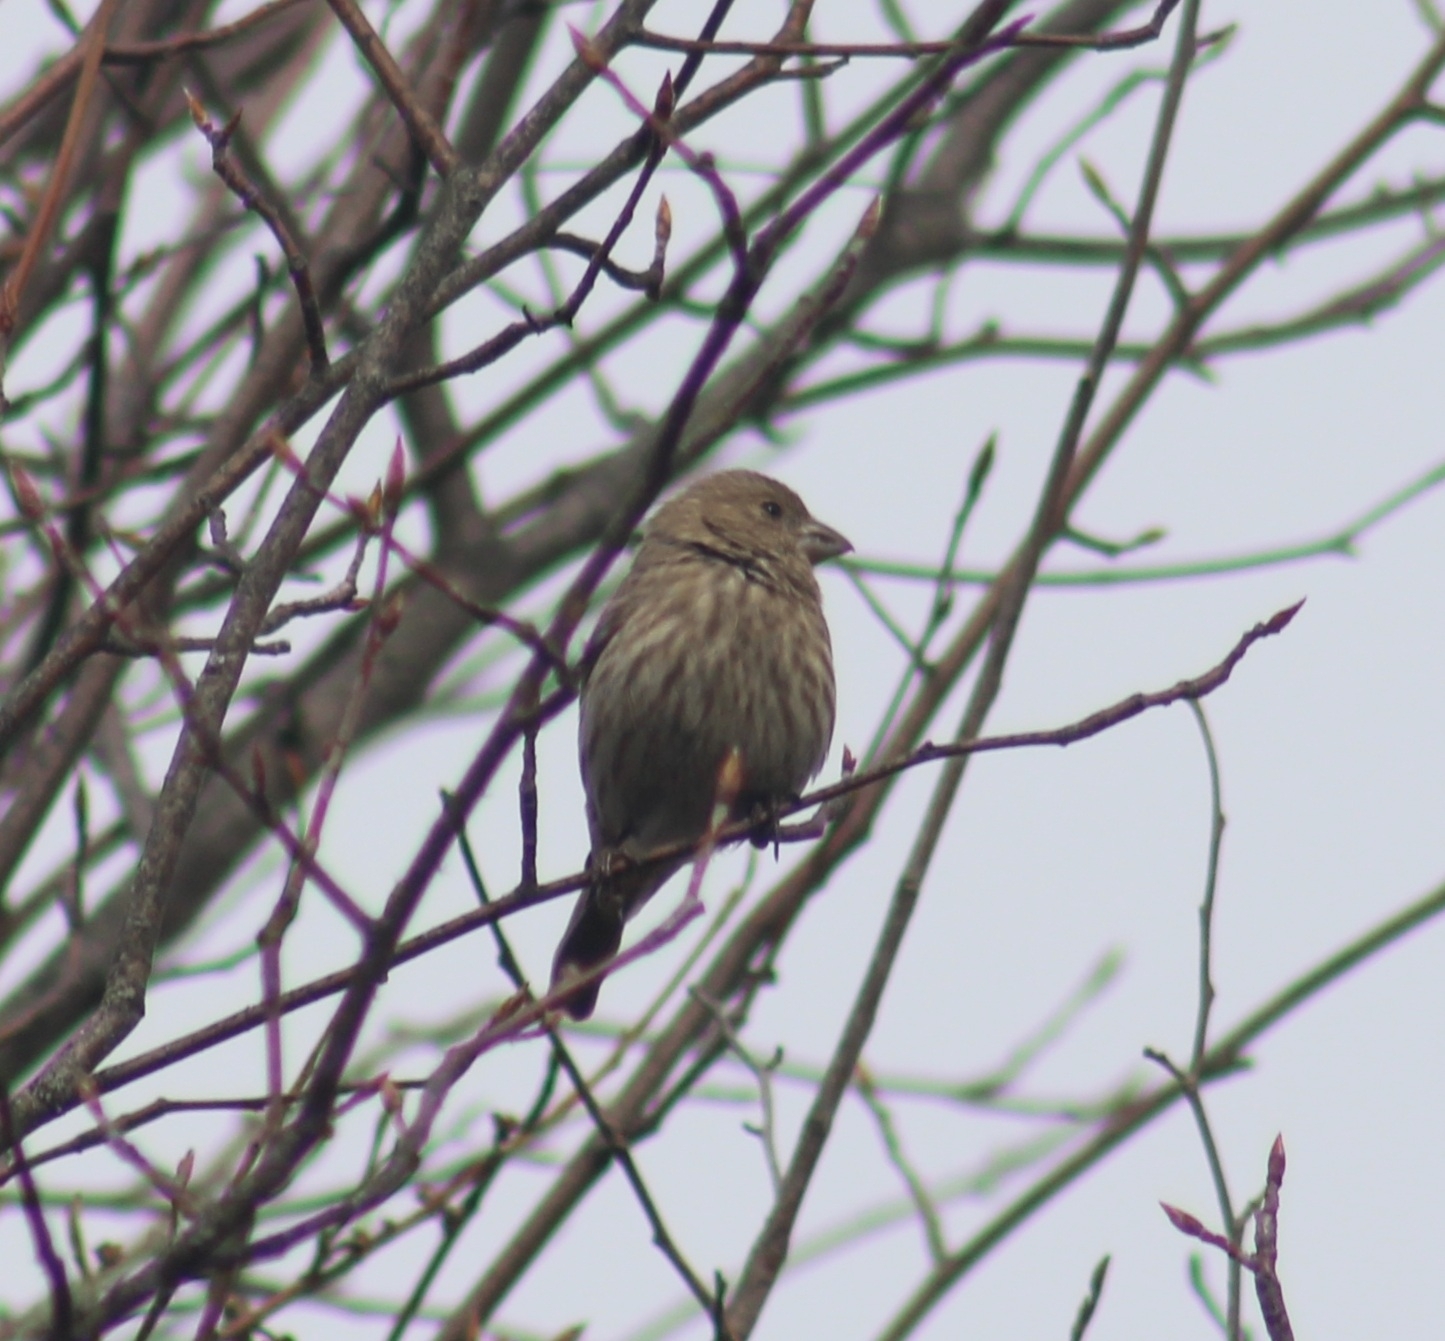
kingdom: Animalia
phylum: Chordata
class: Aves
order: Passeriformes
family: Fringillidae
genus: Haemorhous
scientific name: Haemorhous mexicanus
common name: House finch
